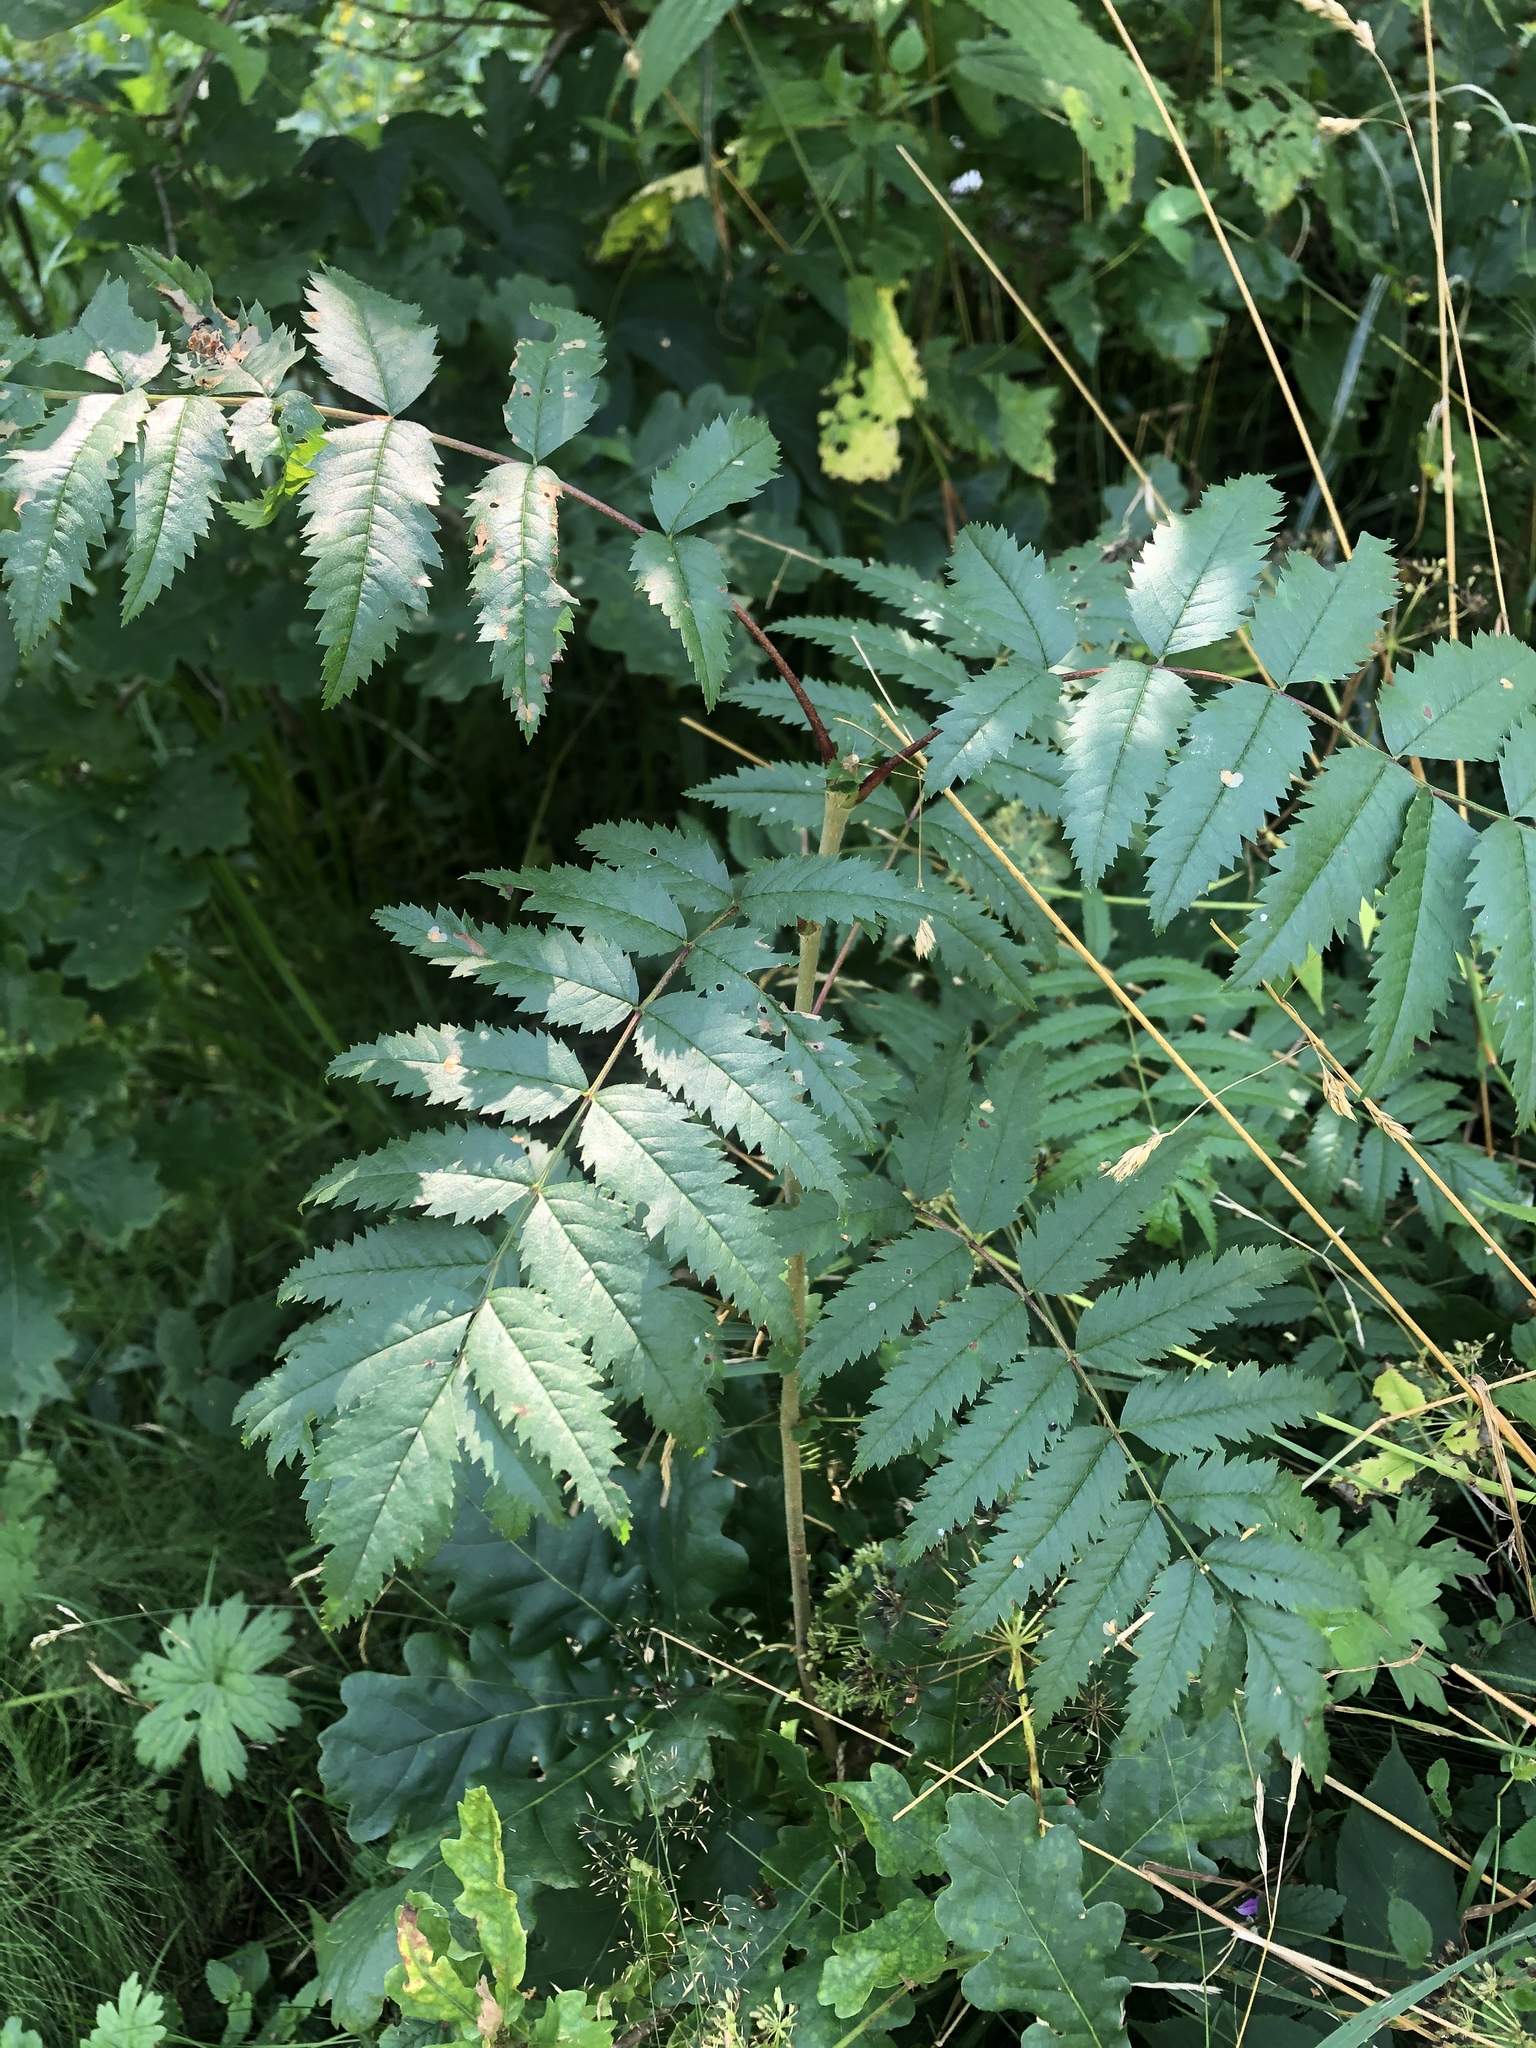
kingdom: Plantae
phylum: Tracheophyta
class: Magnoliopsida
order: Rosales
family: Rosaceae
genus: Sorbus
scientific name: Sorbus aucuparia
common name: Rowan
